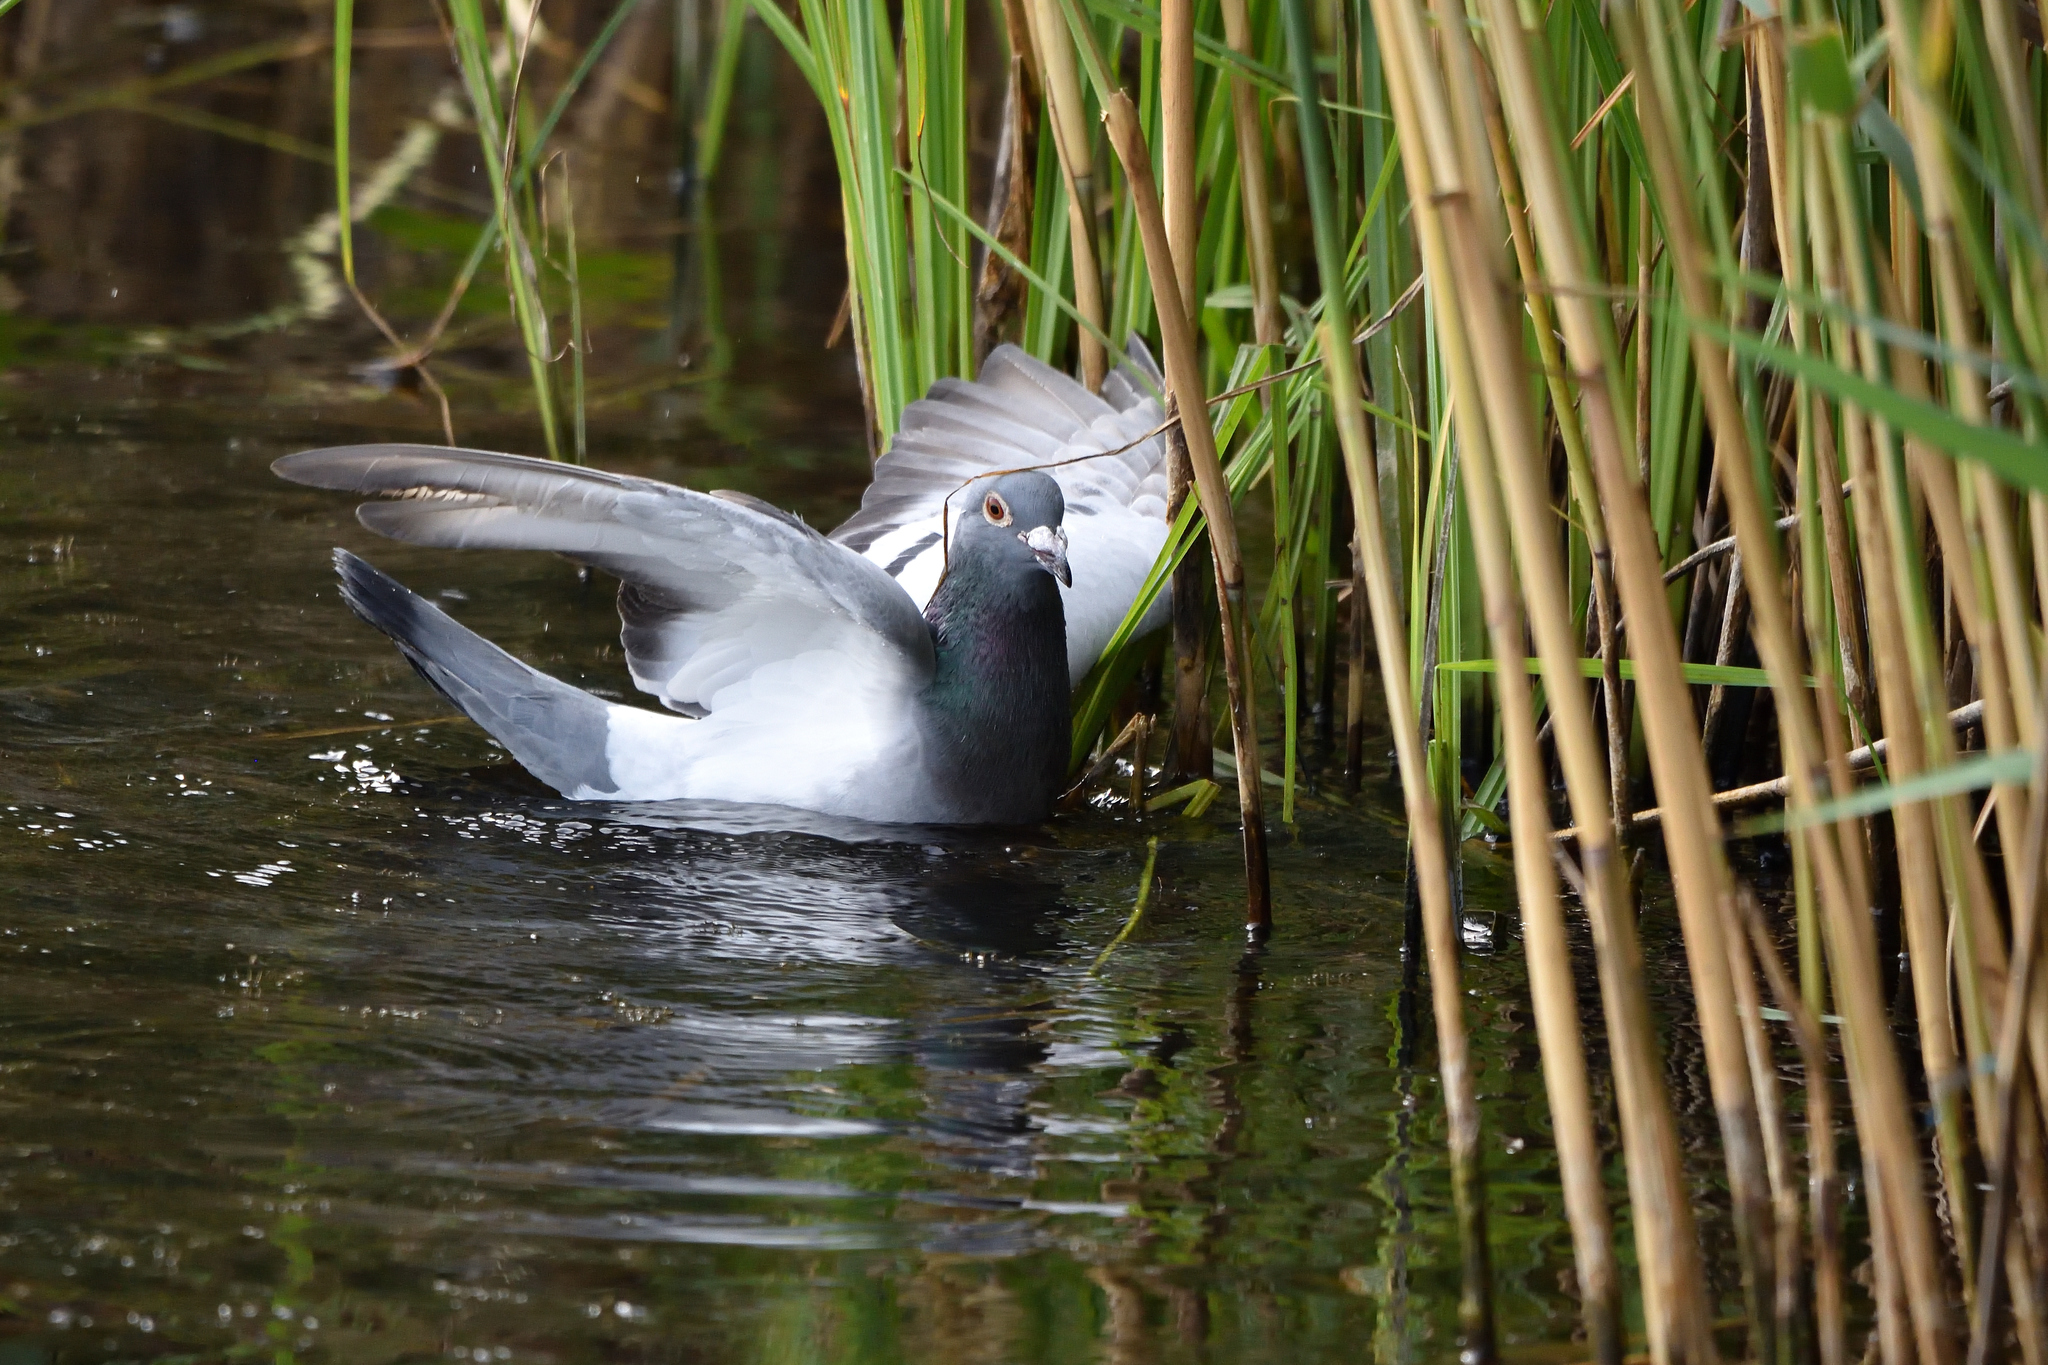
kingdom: Animalia
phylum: Chordata
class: Aves
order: Columbiformes
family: Columbidae
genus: Columba
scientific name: Columba livia
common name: Rock pigeon
